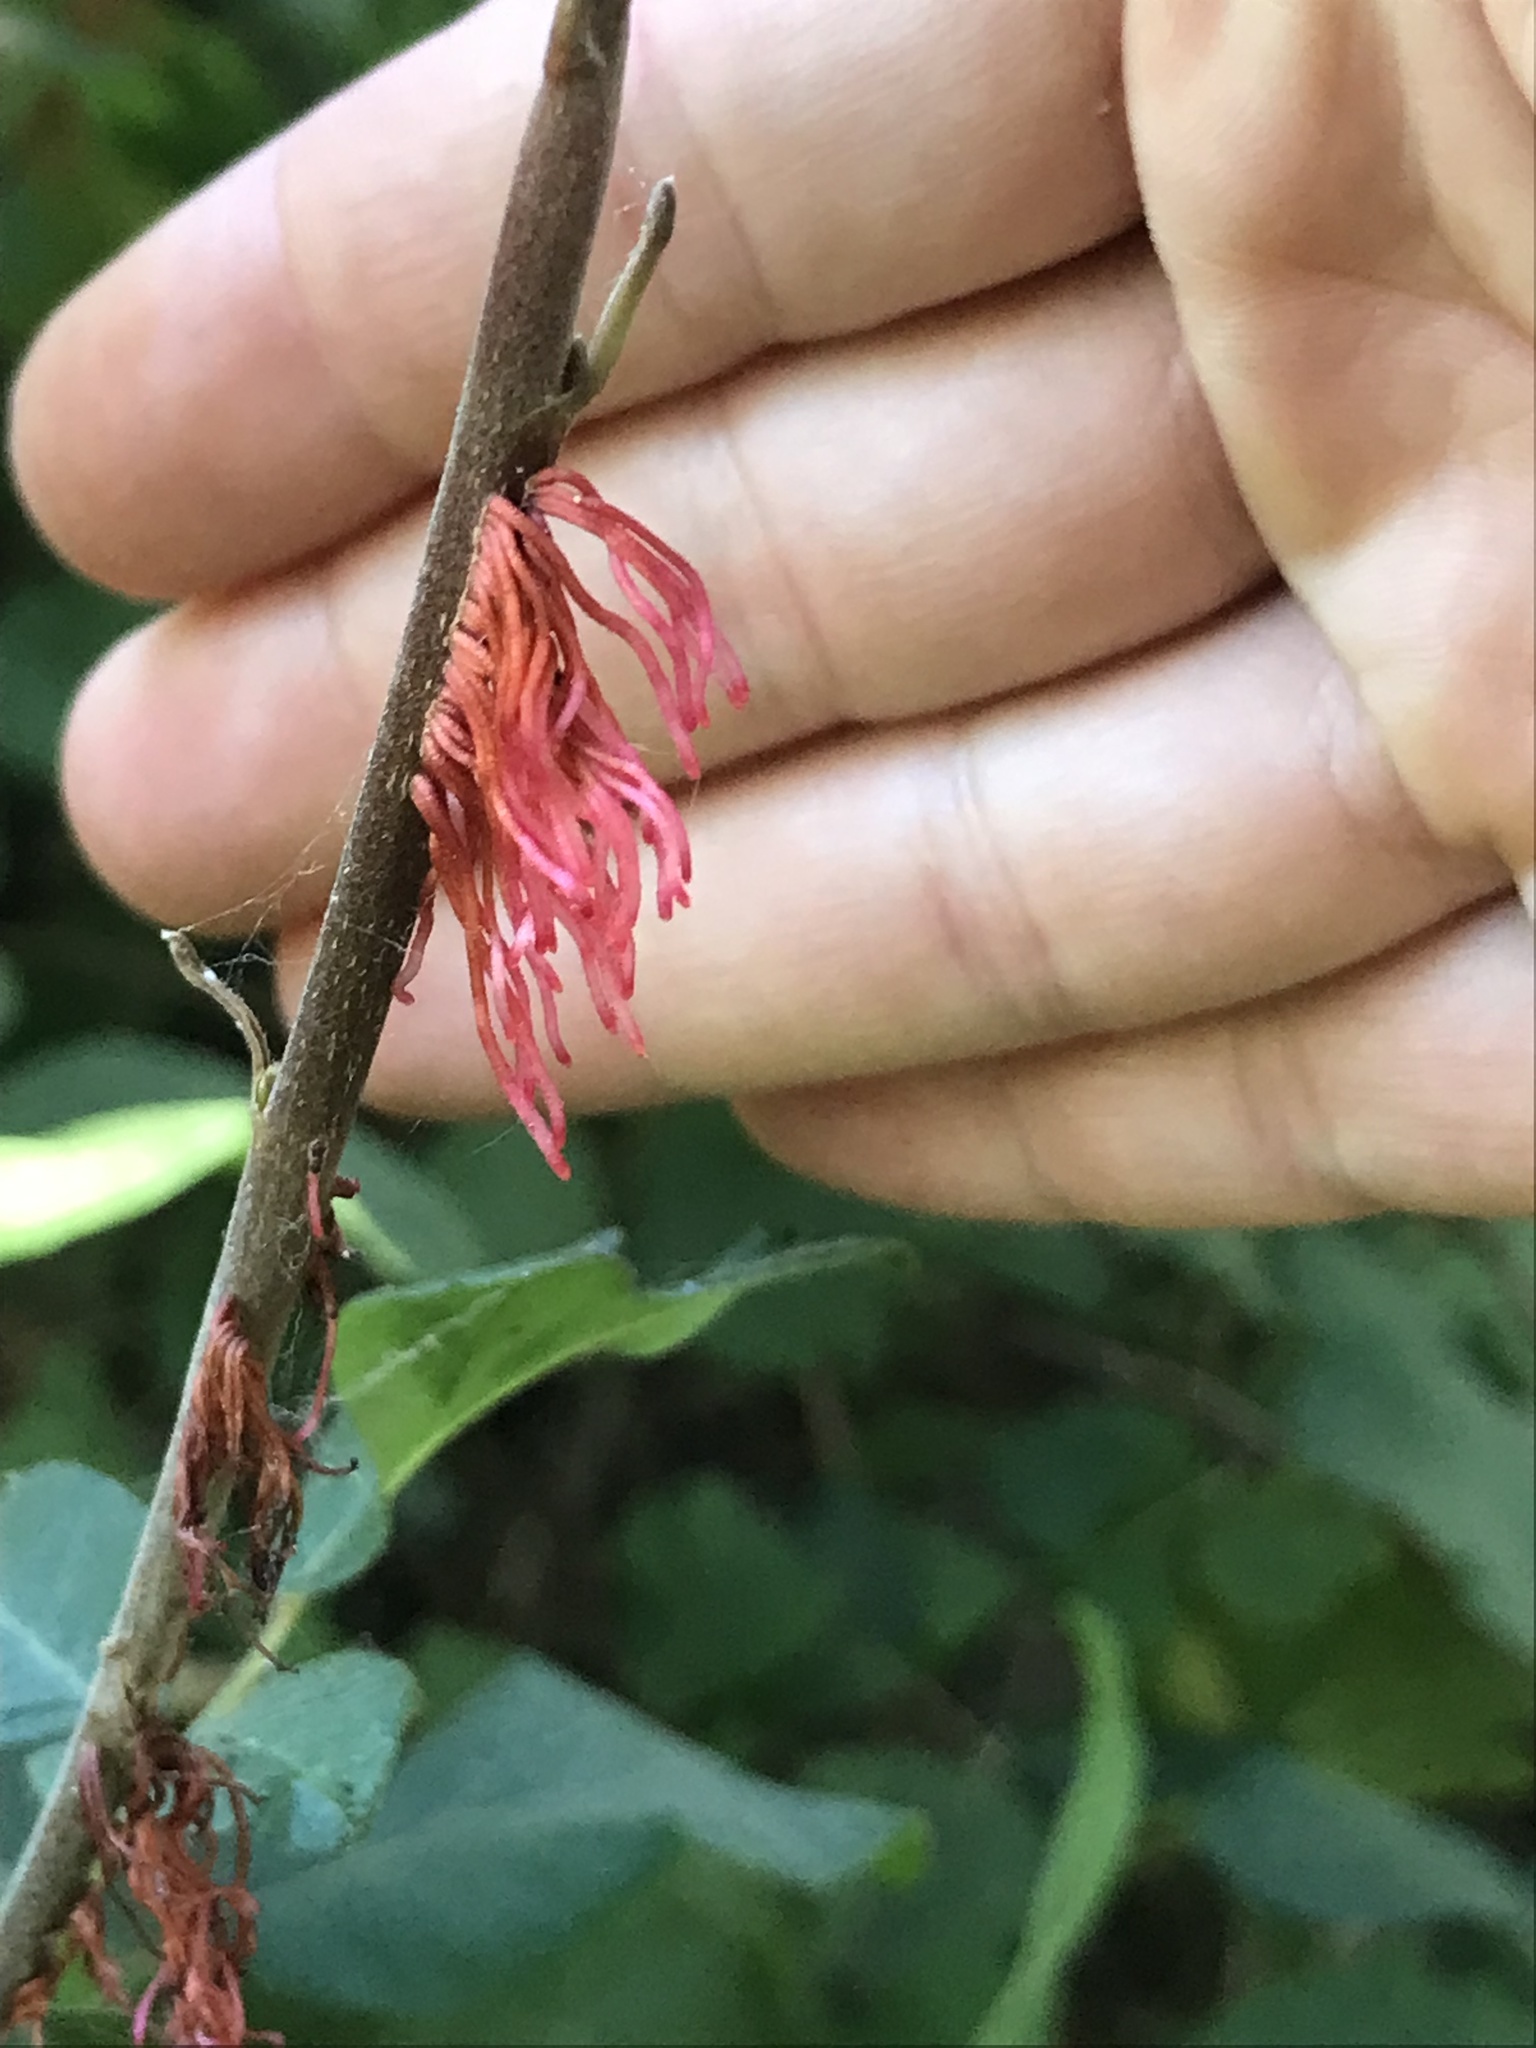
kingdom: Plantae
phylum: Tracheophyta
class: Magnoliopsida
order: Sapindales
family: Anacardiaceae
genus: Toxicodendron
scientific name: Toxicodendron diversilobum
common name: Pacific poison-oak
